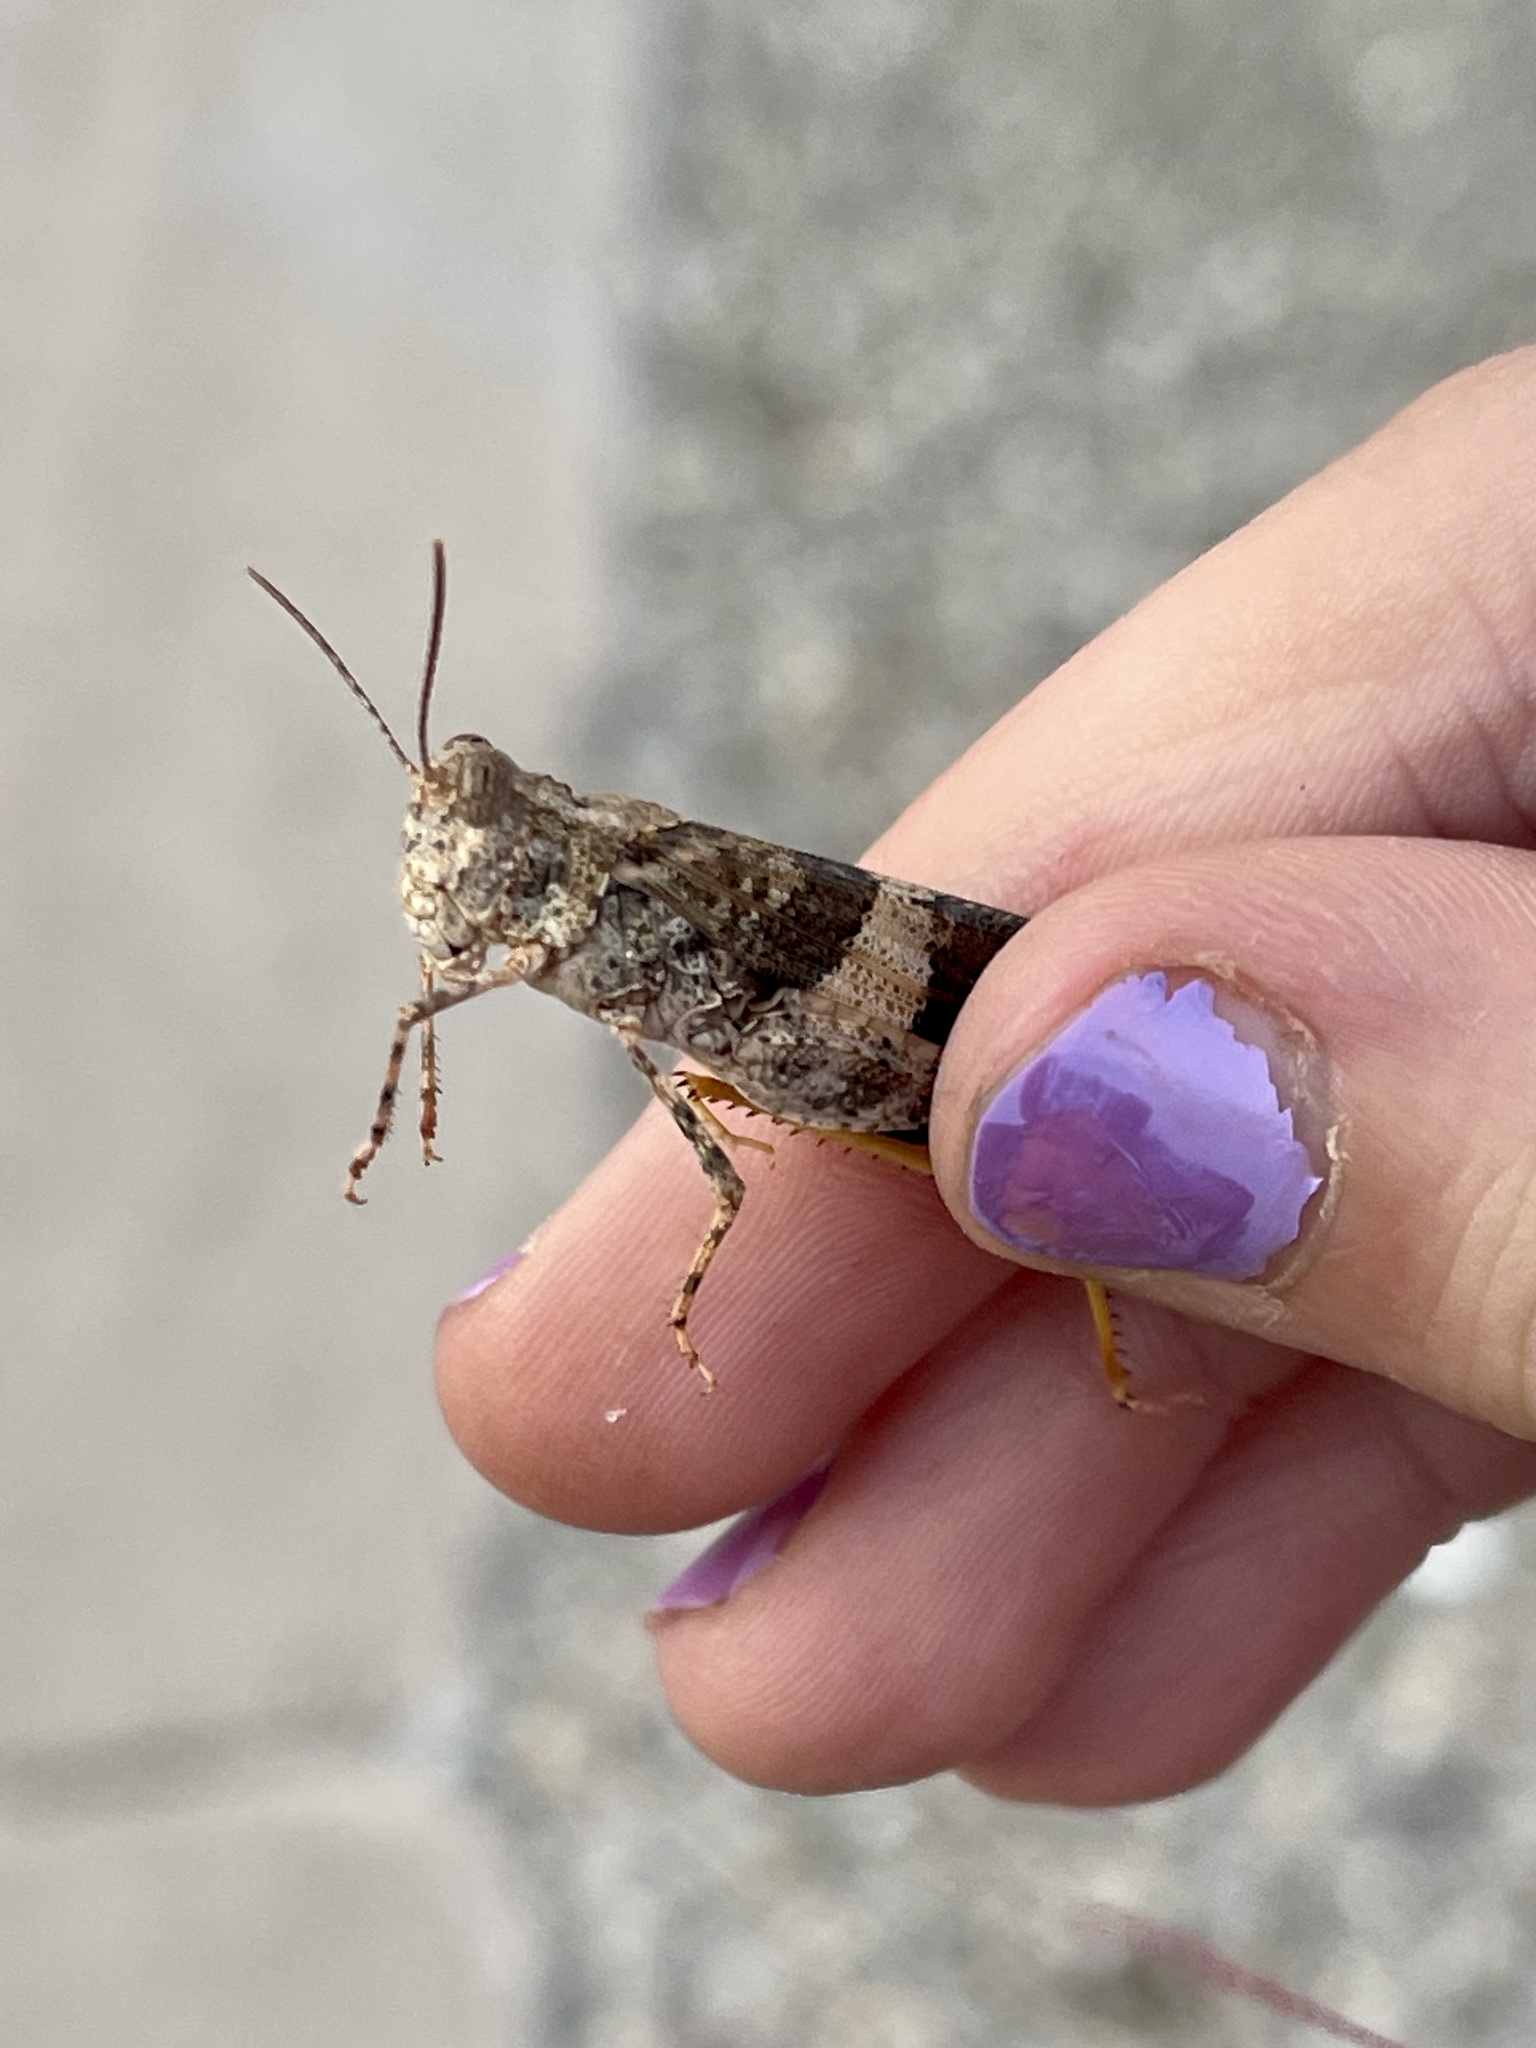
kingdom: Animalia
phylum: Arthropoda
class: Insecta
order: Orthoptera
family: Acrididae
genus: Trimerotropis
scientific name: Trimerotropis pallidipennis
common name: Pallid-winged grasshopper
